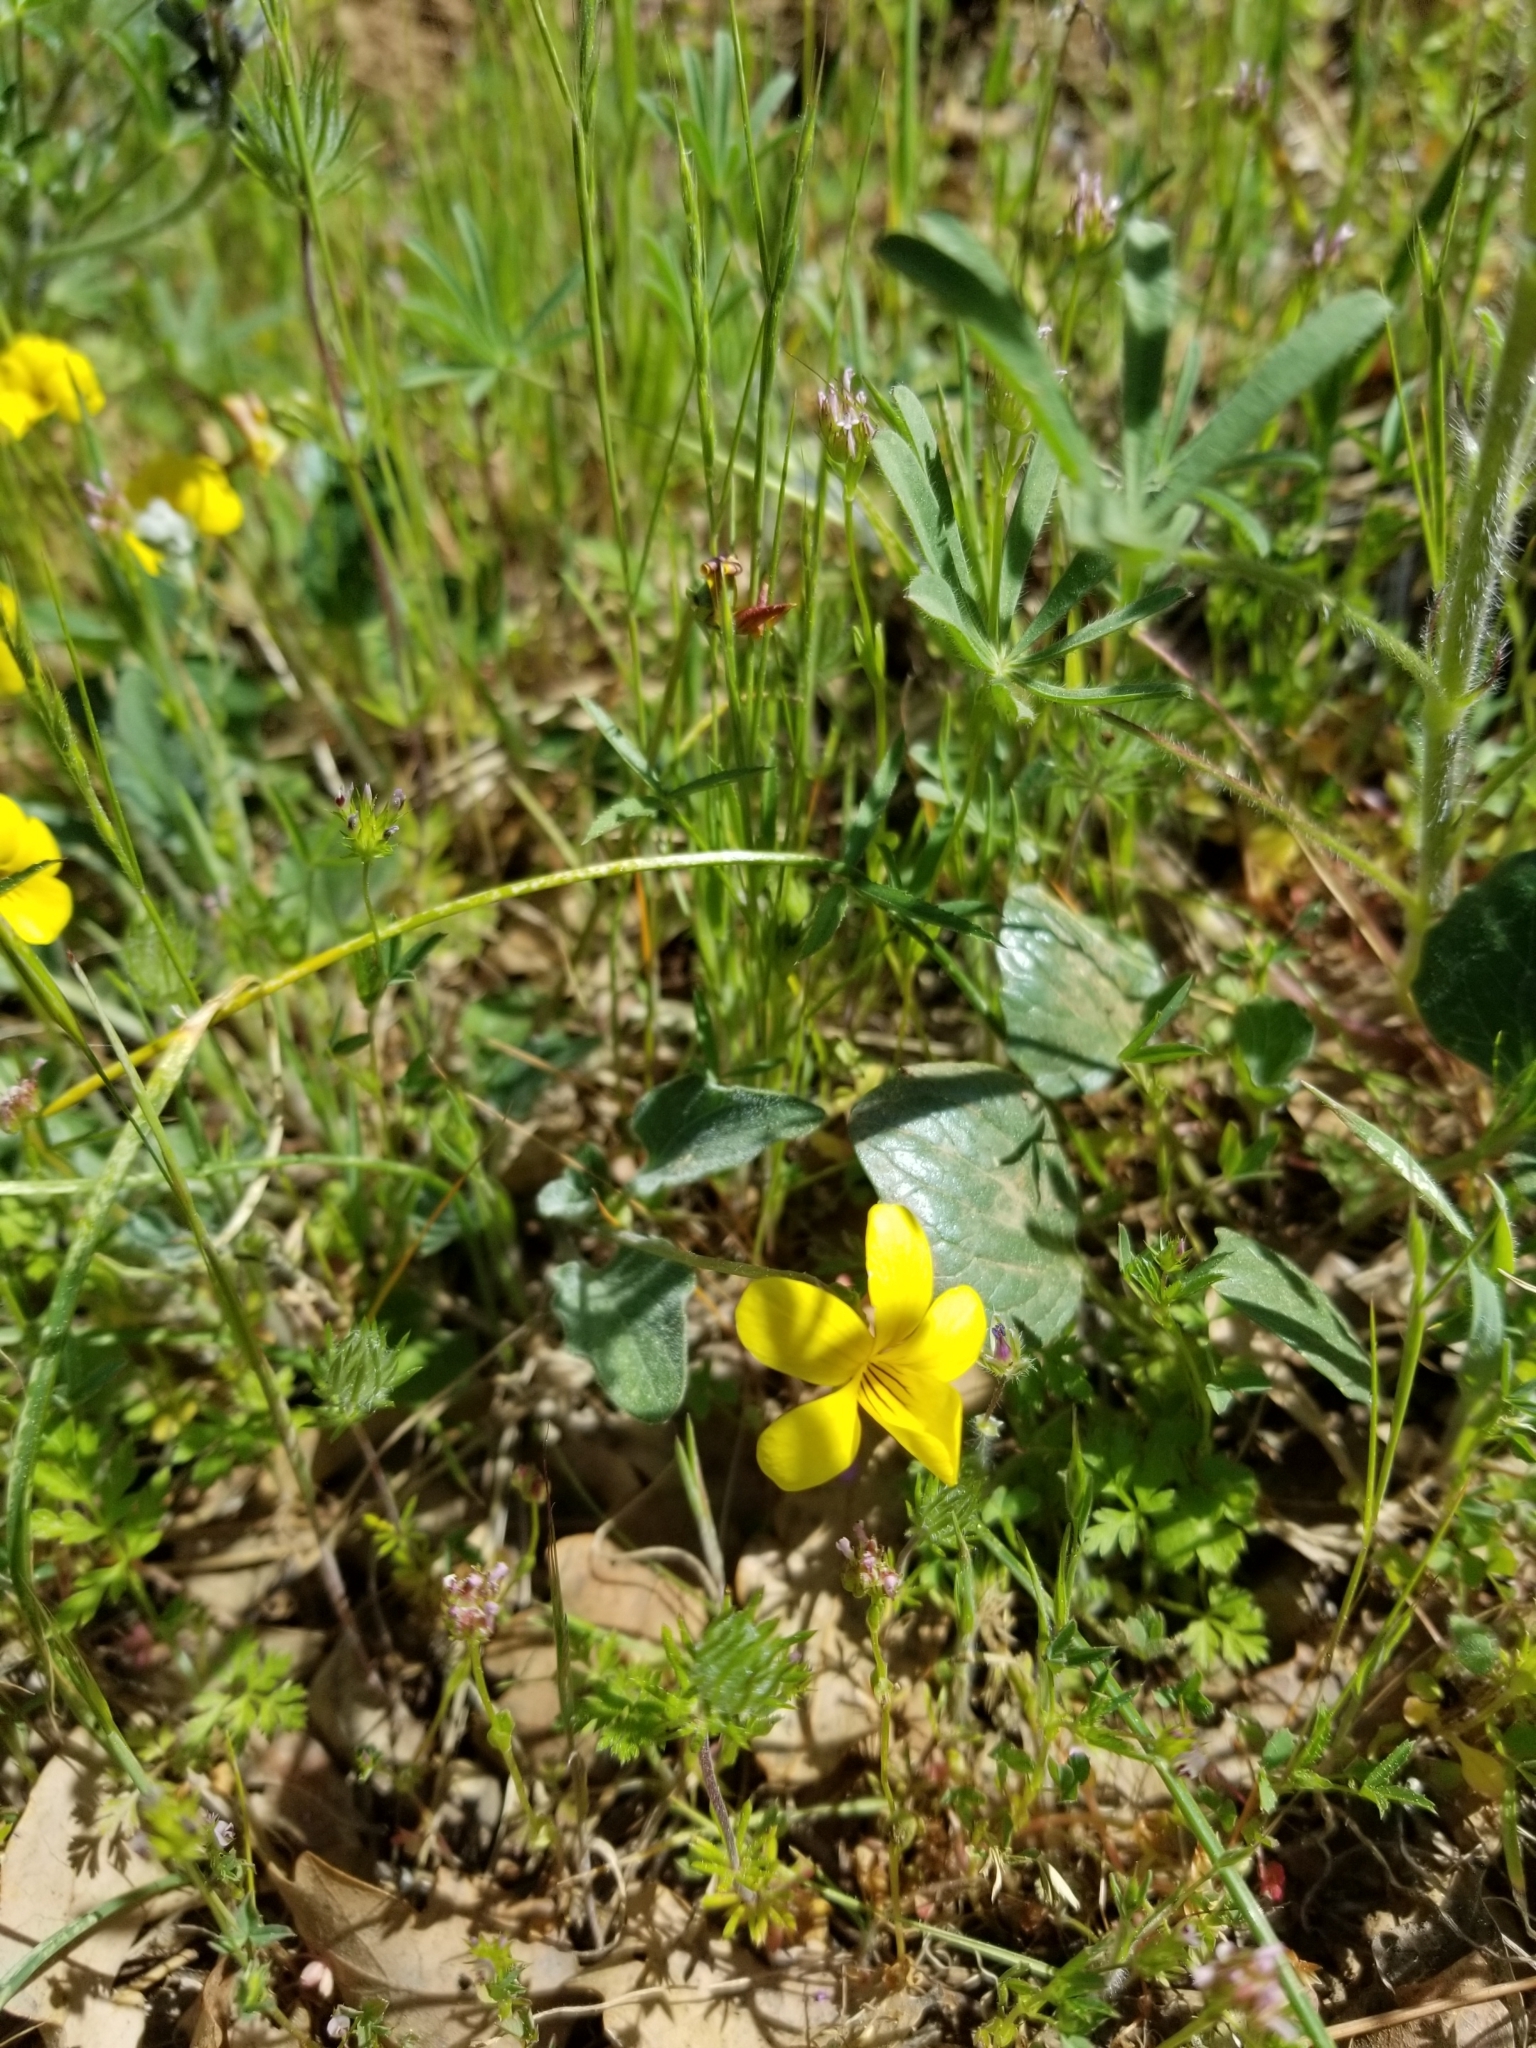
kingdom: Plantae
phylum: Tracheophyta
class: Magnoliopsida
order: Malpighiales
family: Violaceae
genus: Viola
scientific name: Viola purpurea
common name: Pine violet
